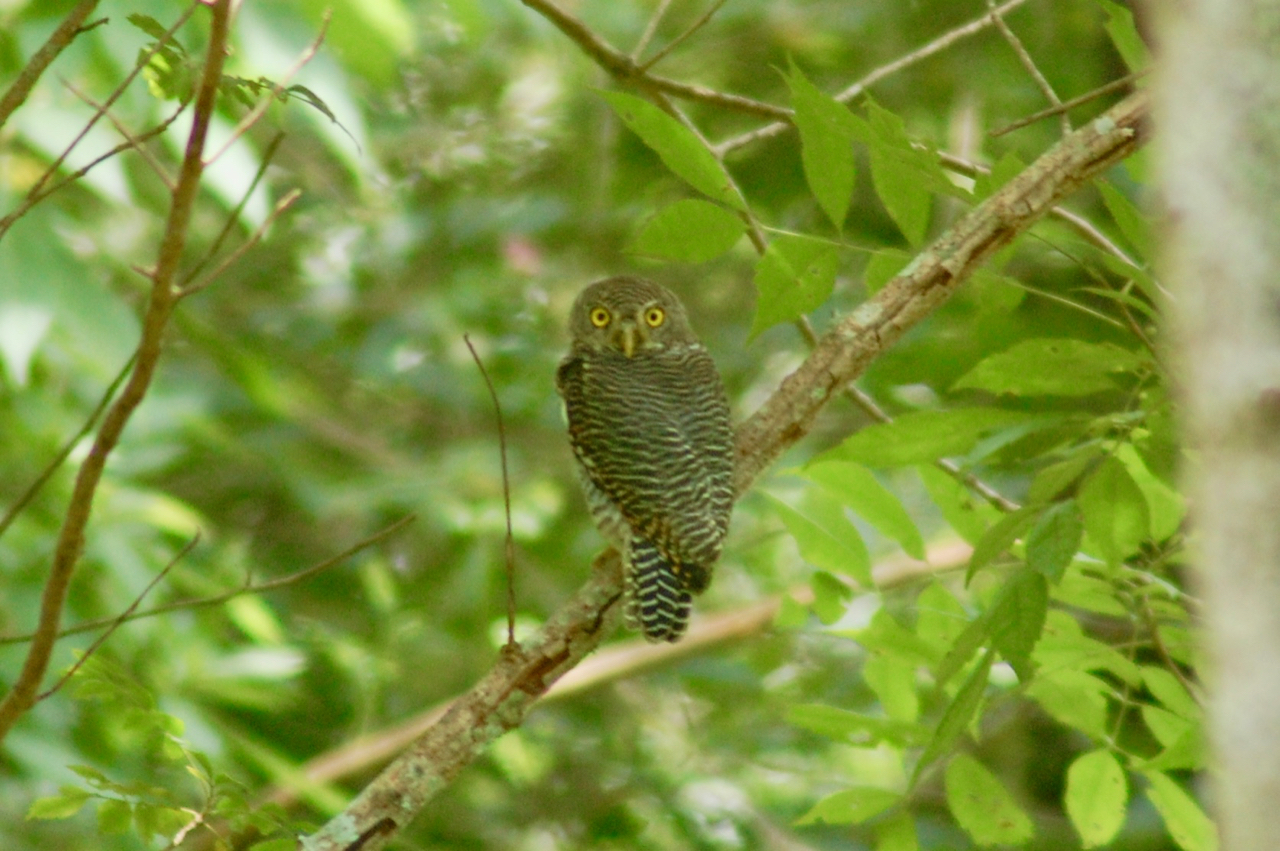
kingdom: Animalia
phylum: Chordata
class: Aves
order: Strigiformes
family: Strigidae
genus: Glaucidium
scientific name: Glaucidium radiatum
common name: Jungle owlet
